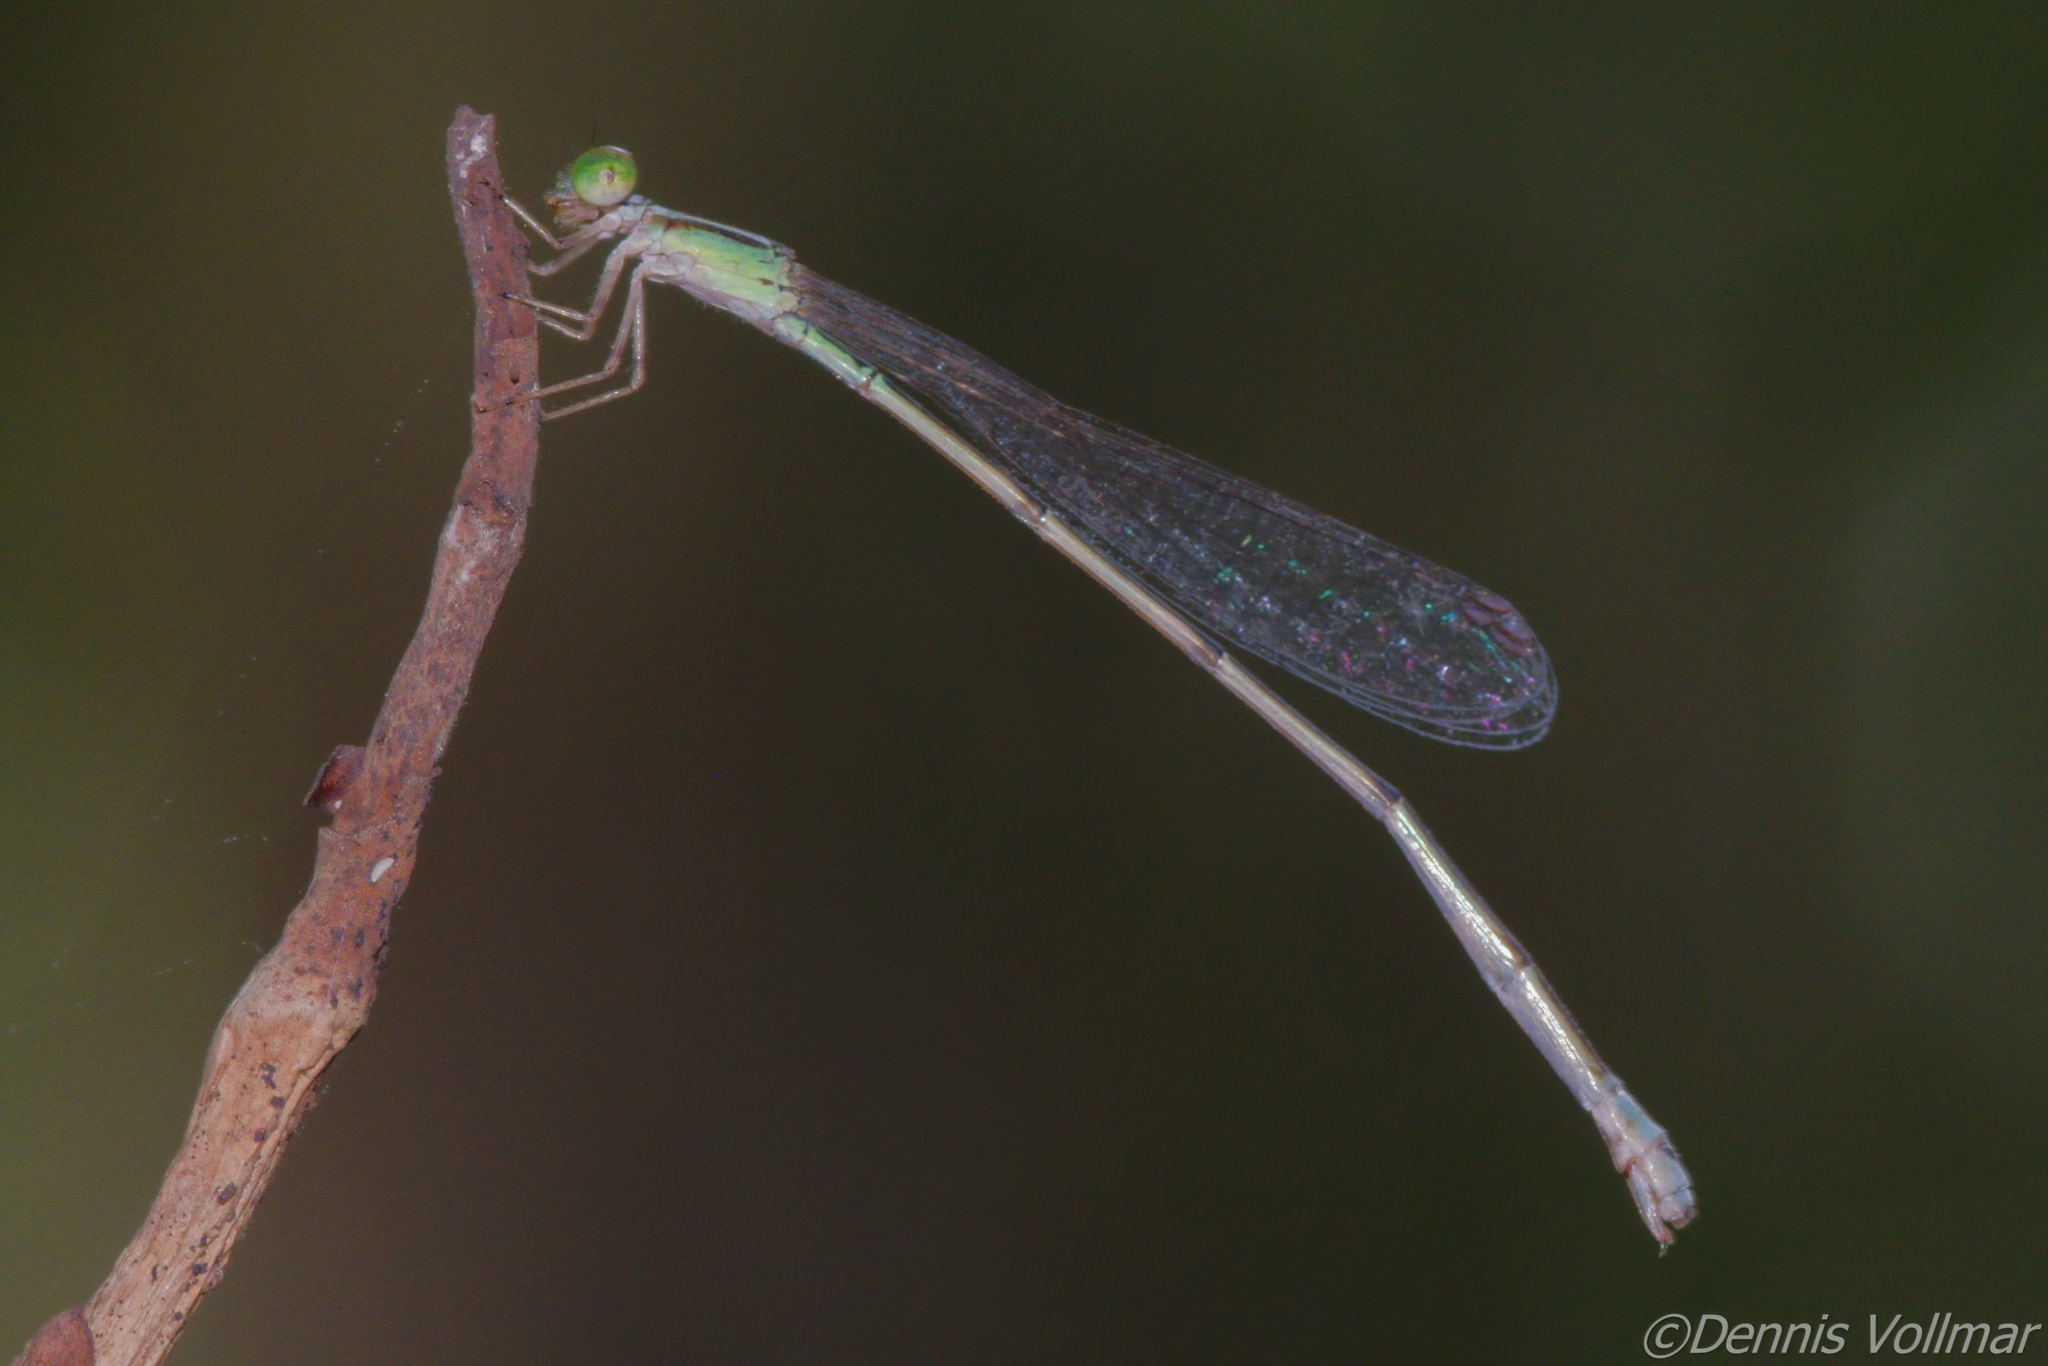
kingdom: Animalia
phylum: Arthropoda
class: Insecta
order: Odonata
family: Coenagrionidae
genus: Leptobasis
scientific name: Leptobasis lucifer
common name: Lucifer swampdamsel
